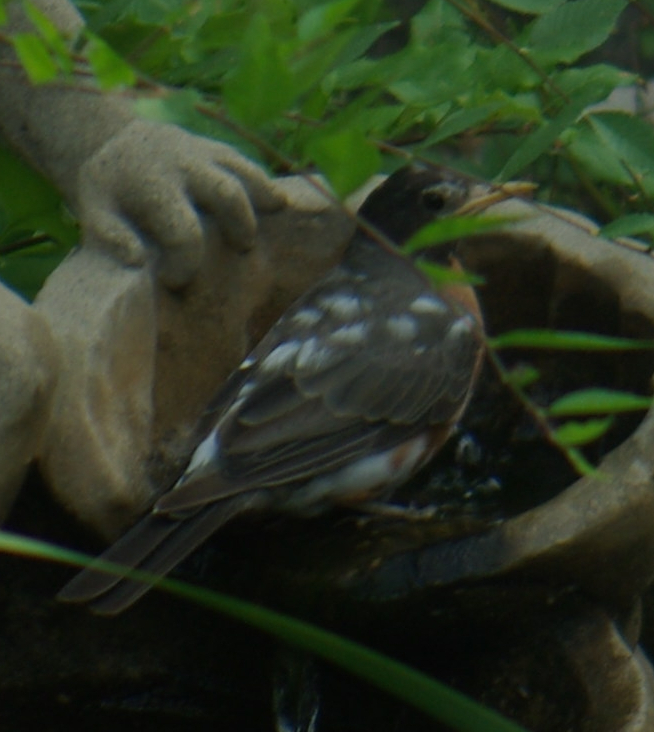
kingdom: Animalia
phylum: Chordata
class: Aves
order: Passeriformes
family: Turdidae
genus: Turdus
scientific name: Turdus migratorius
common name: American robin
